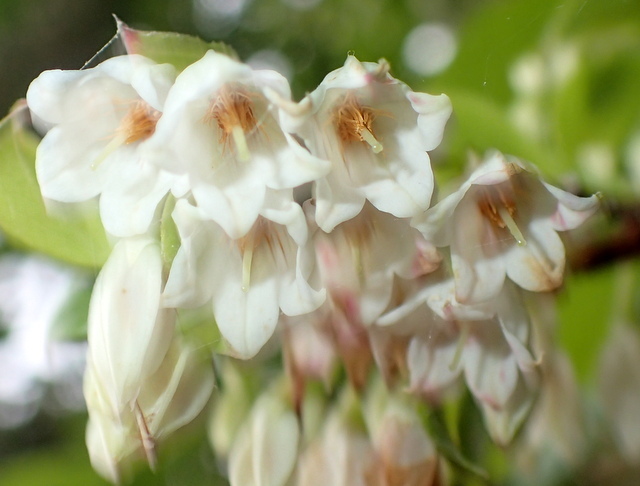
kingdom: Plantae
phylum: Tracheophyta
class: Magnoliopsida
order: Ericales
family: Ericaceae
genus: Vaccinium
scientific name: Vaccinium arboreum
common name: Farkleberry
